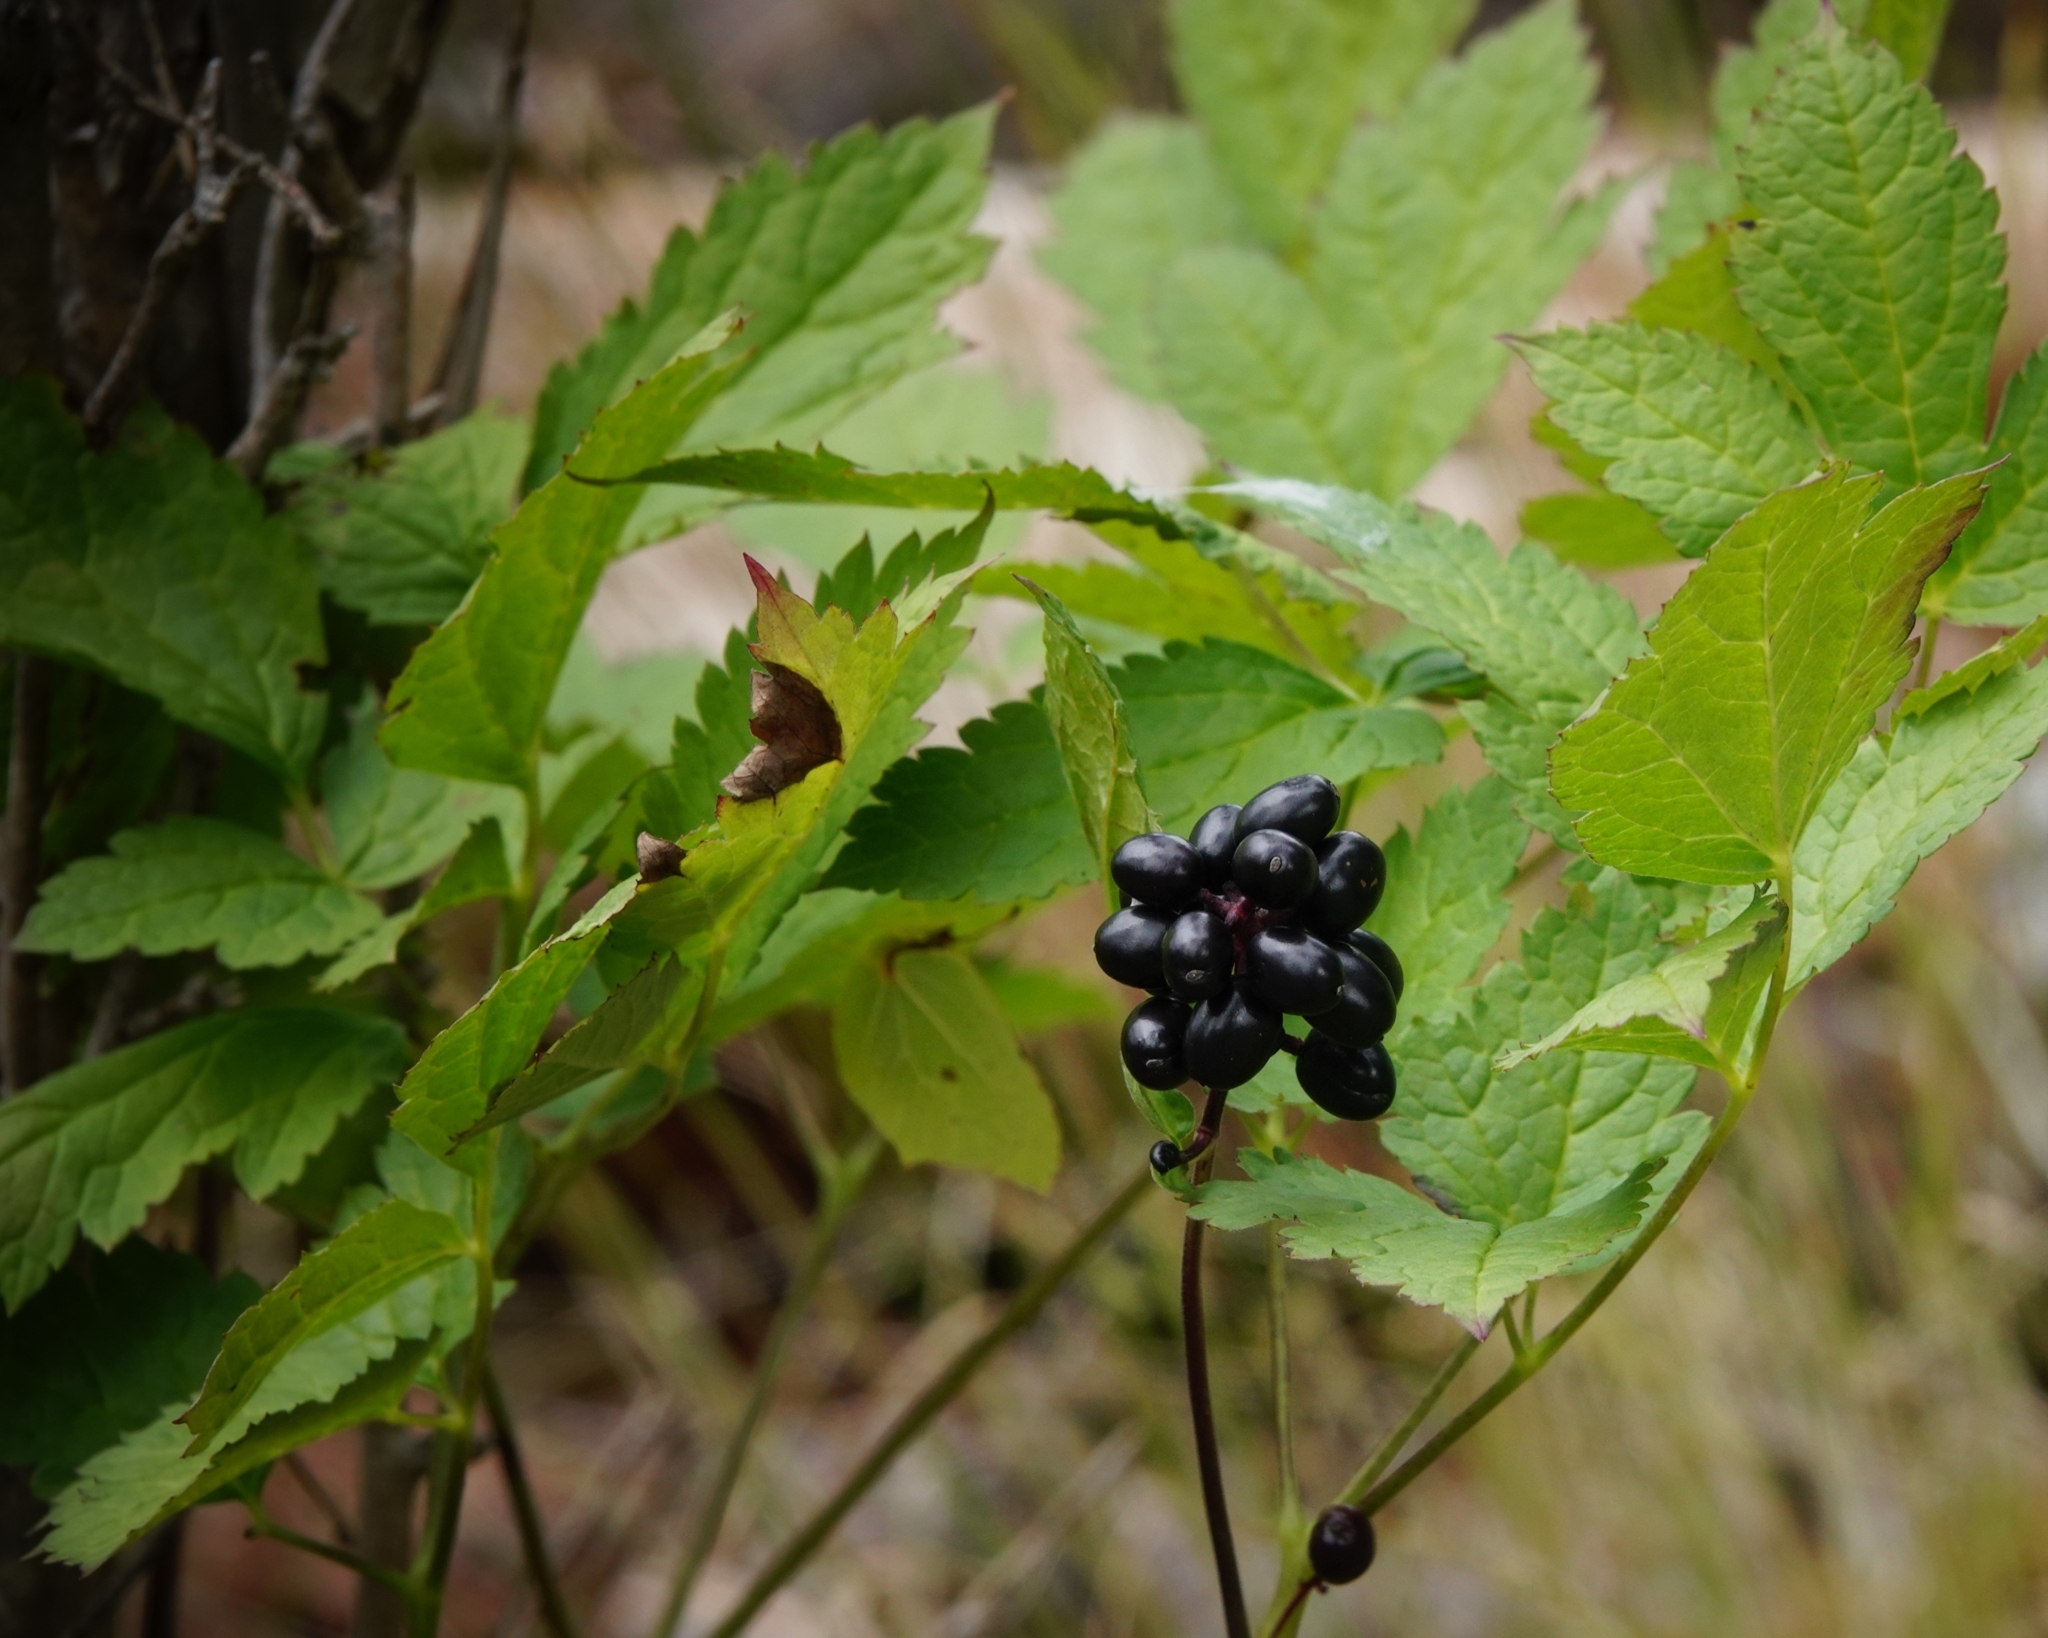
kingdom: Plantae
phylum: Tracheophyta
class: Magnoliopsida
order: Ranunculales
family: Ranunculaceae
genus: Actaea
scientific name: Actaea spicata
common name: Baneberry
